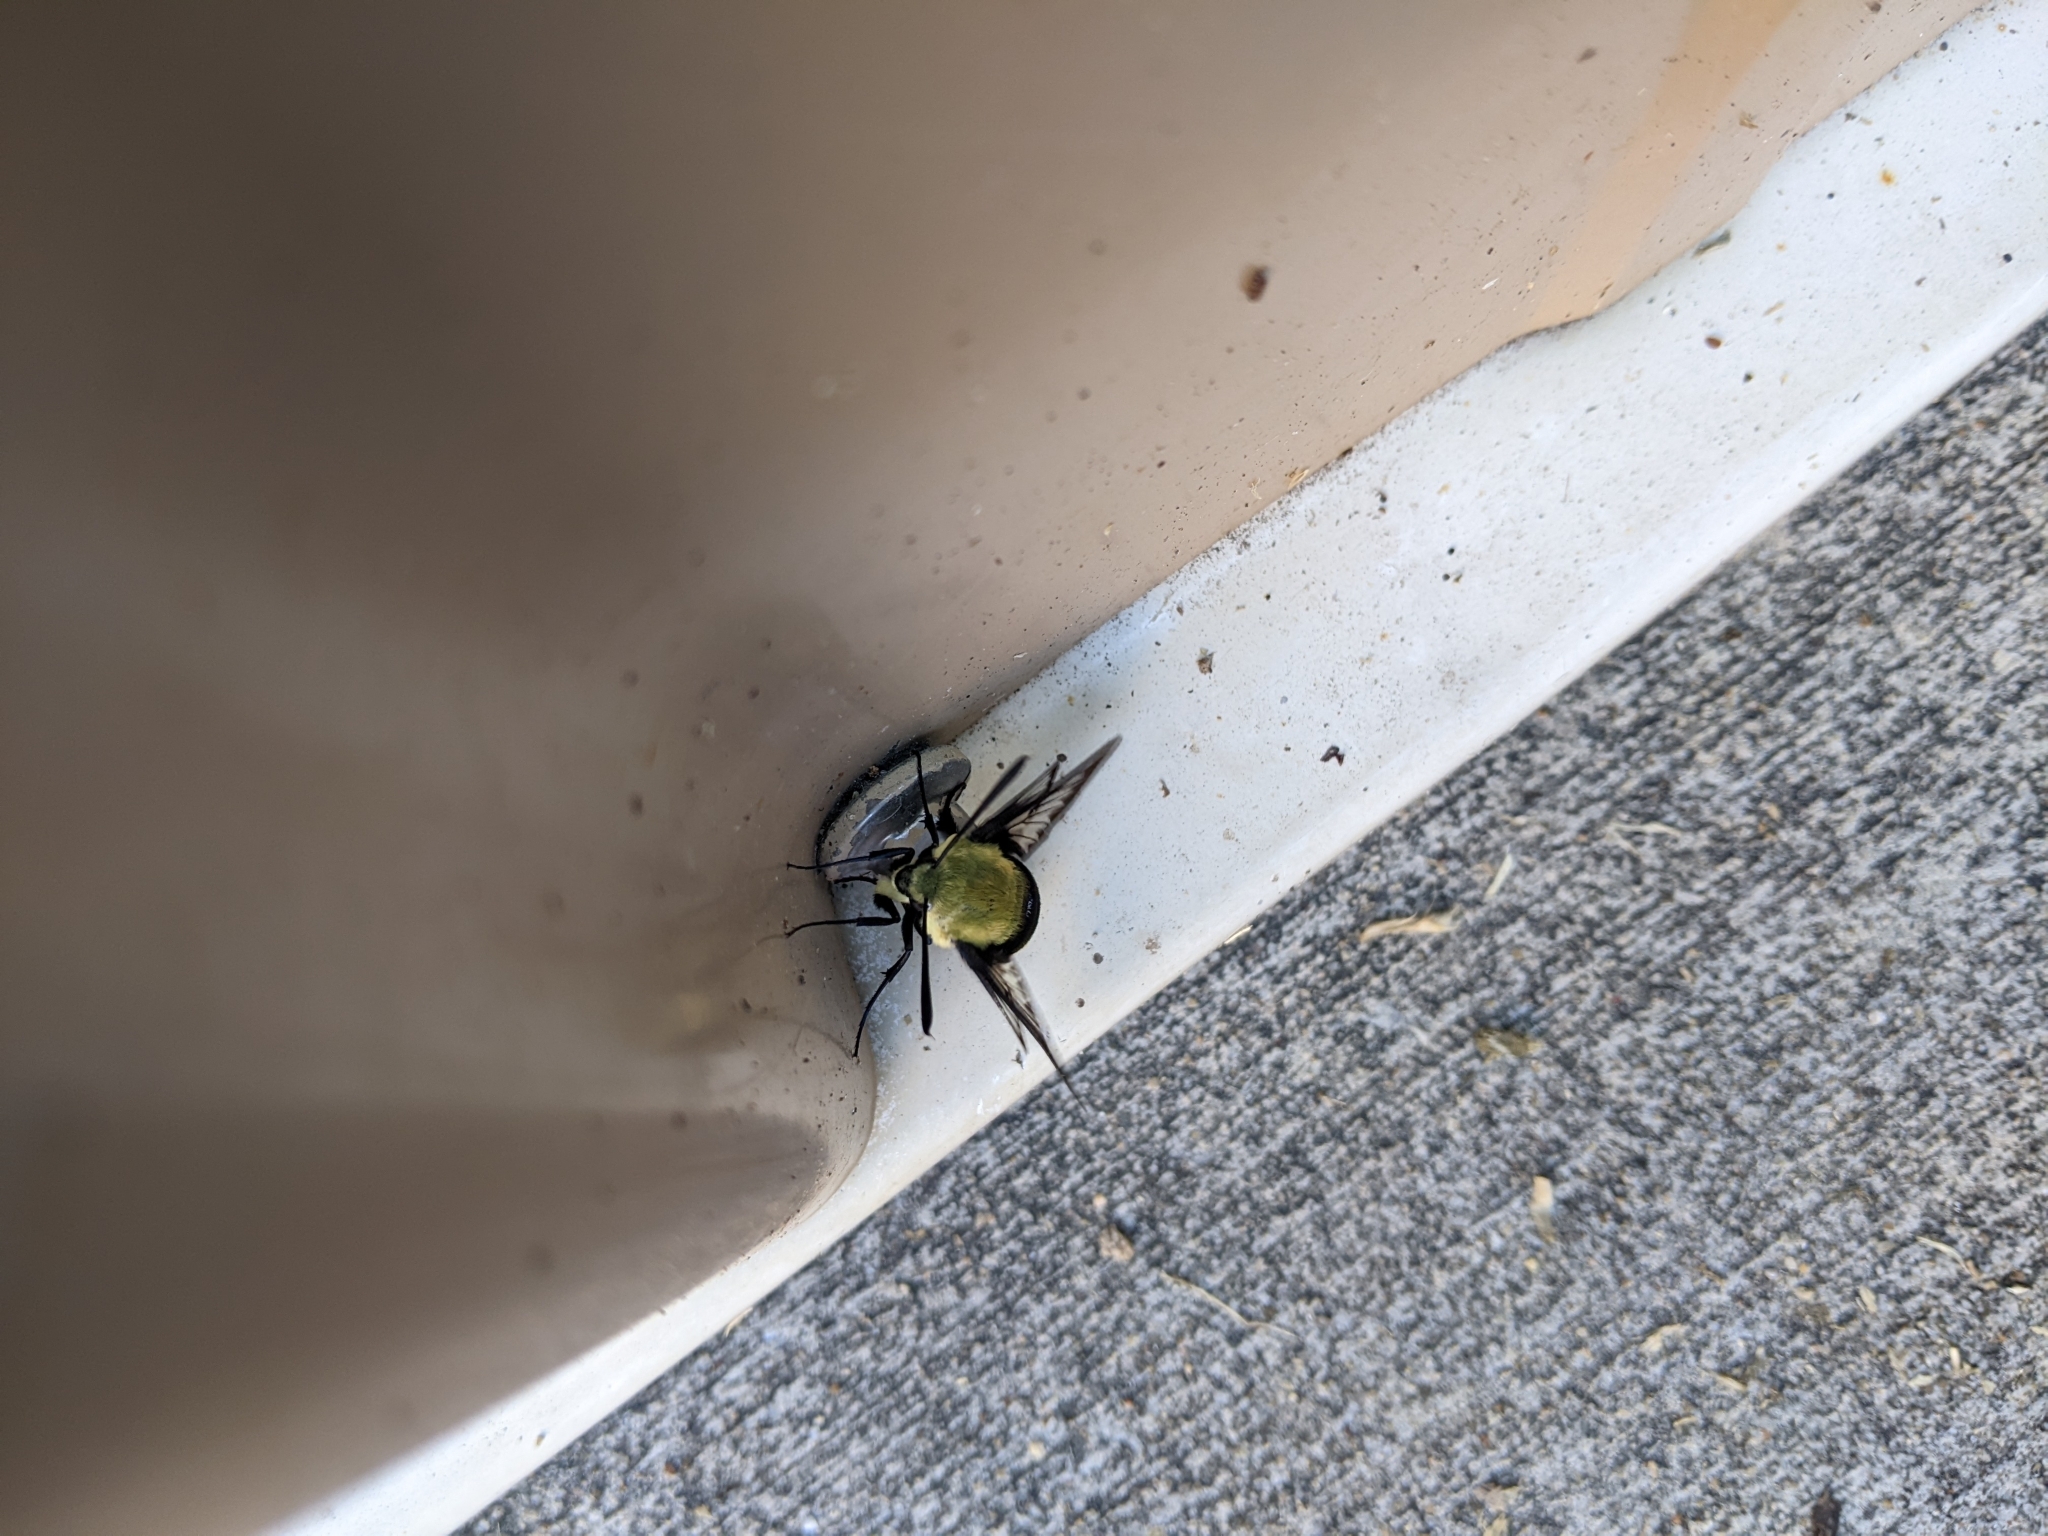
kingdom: Animalia
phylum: Arthropoda
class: Insecta
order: Lepidoptera
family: Sphingidae
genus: Hemaris
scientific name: Hemaris diffinis
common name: Bumblebee moth
